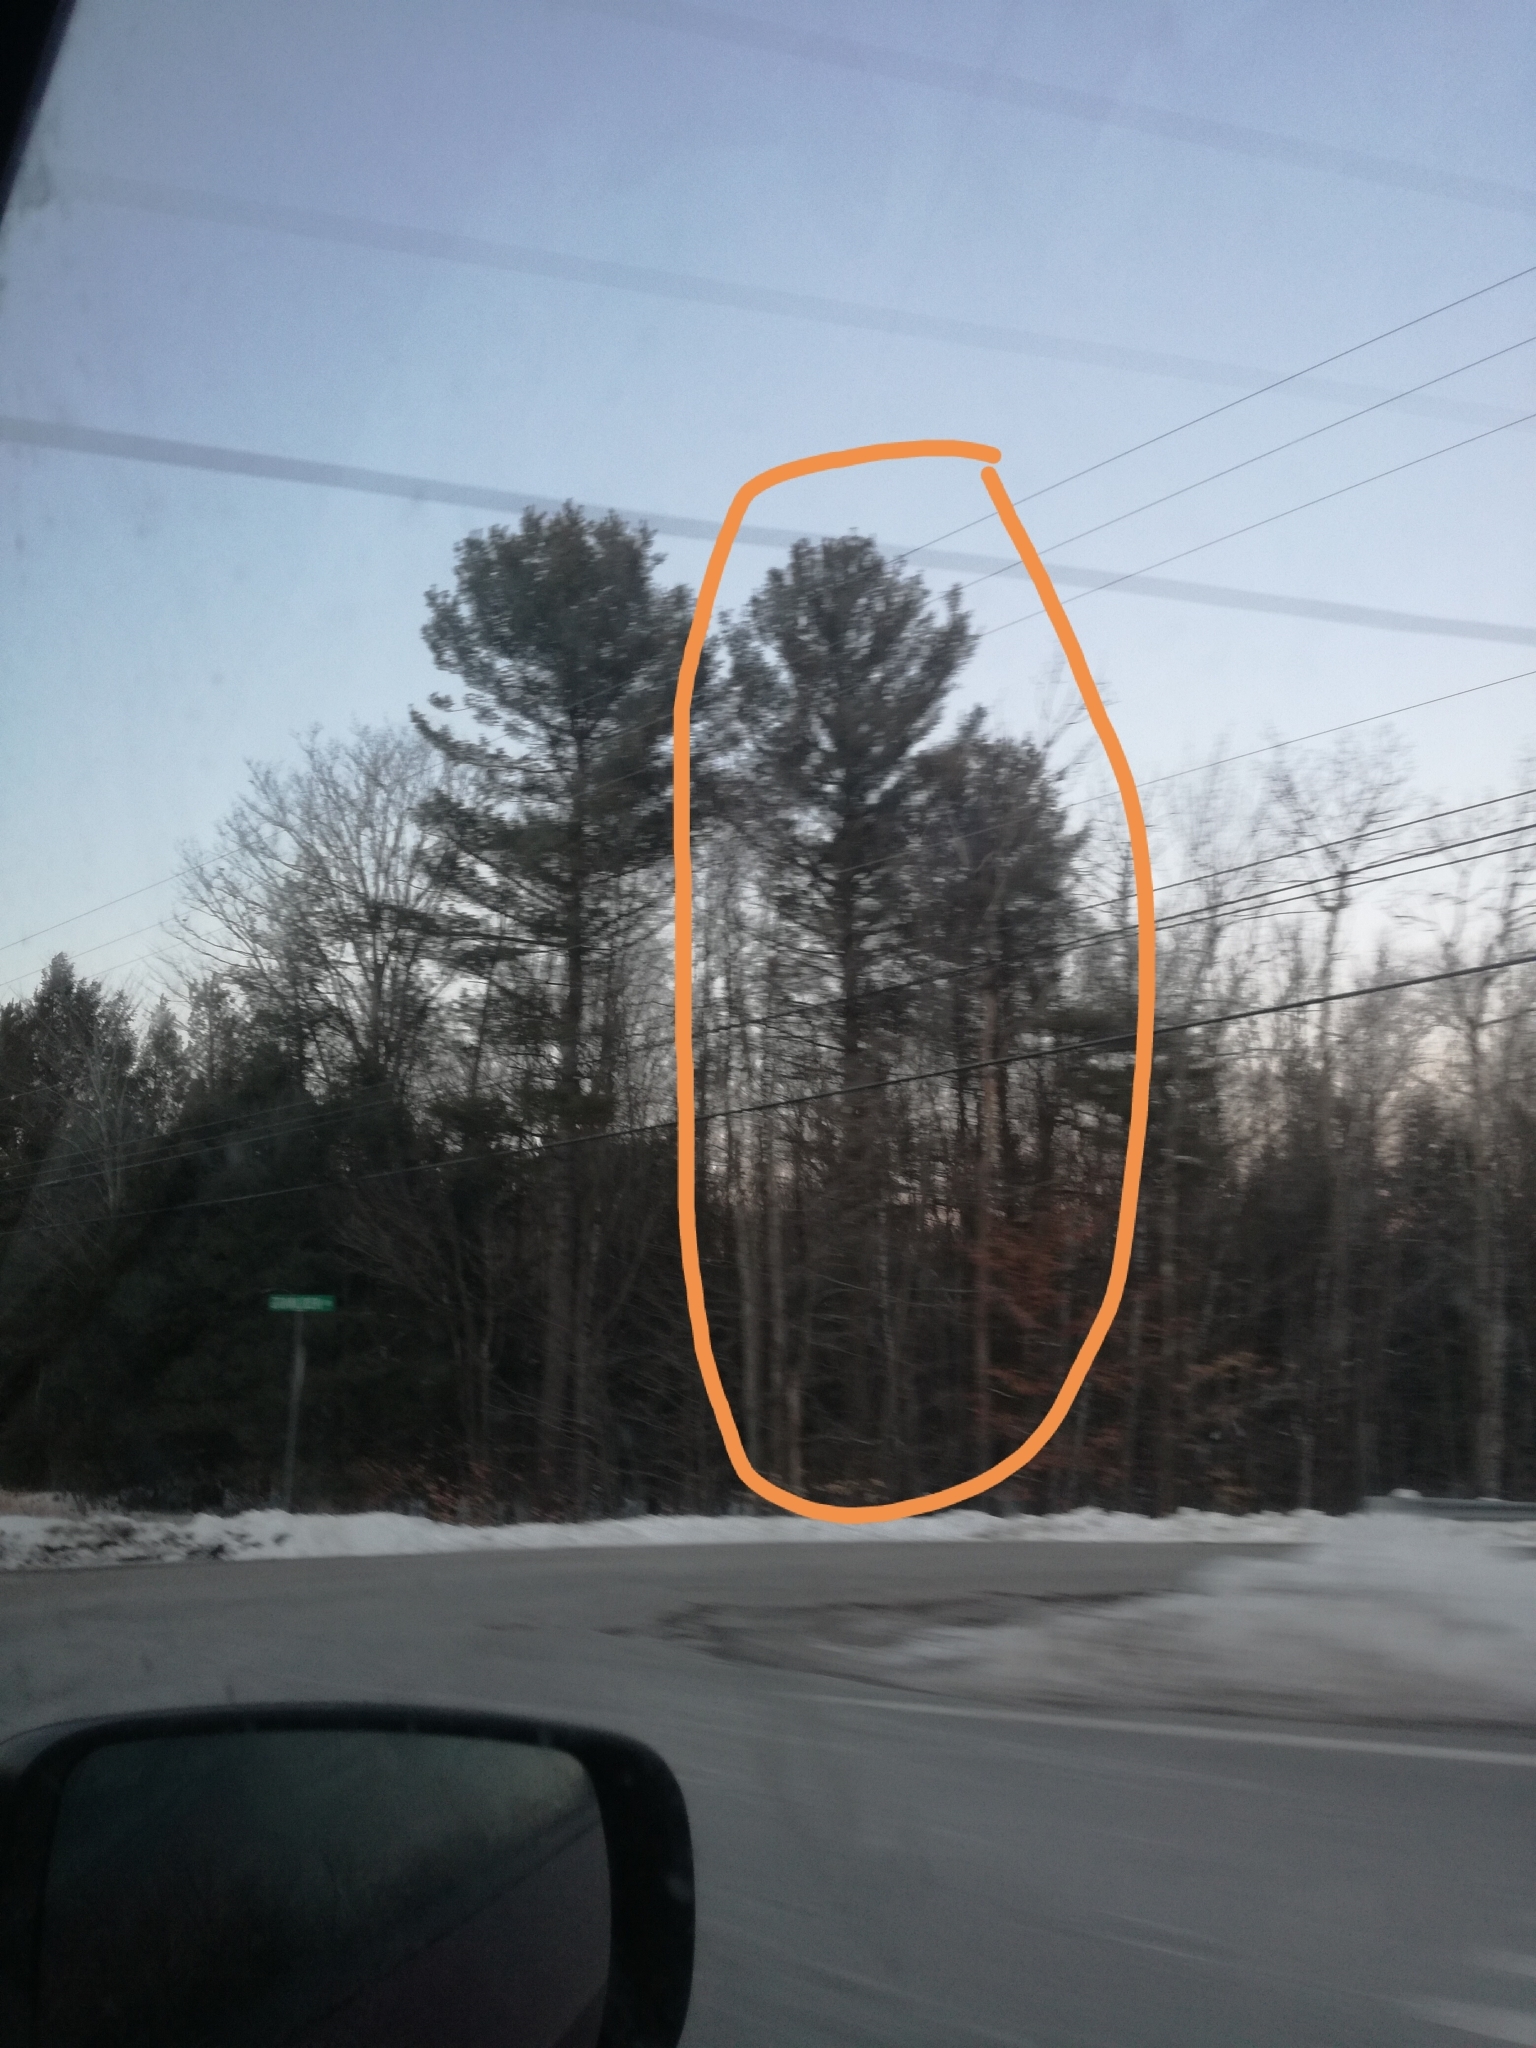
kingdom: Plantae
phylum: Tracheophyta
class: Pinopsida
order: Pinales
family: Pinaceae
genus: Pinus
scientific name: Pinus strobus
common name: Weymouth pine
